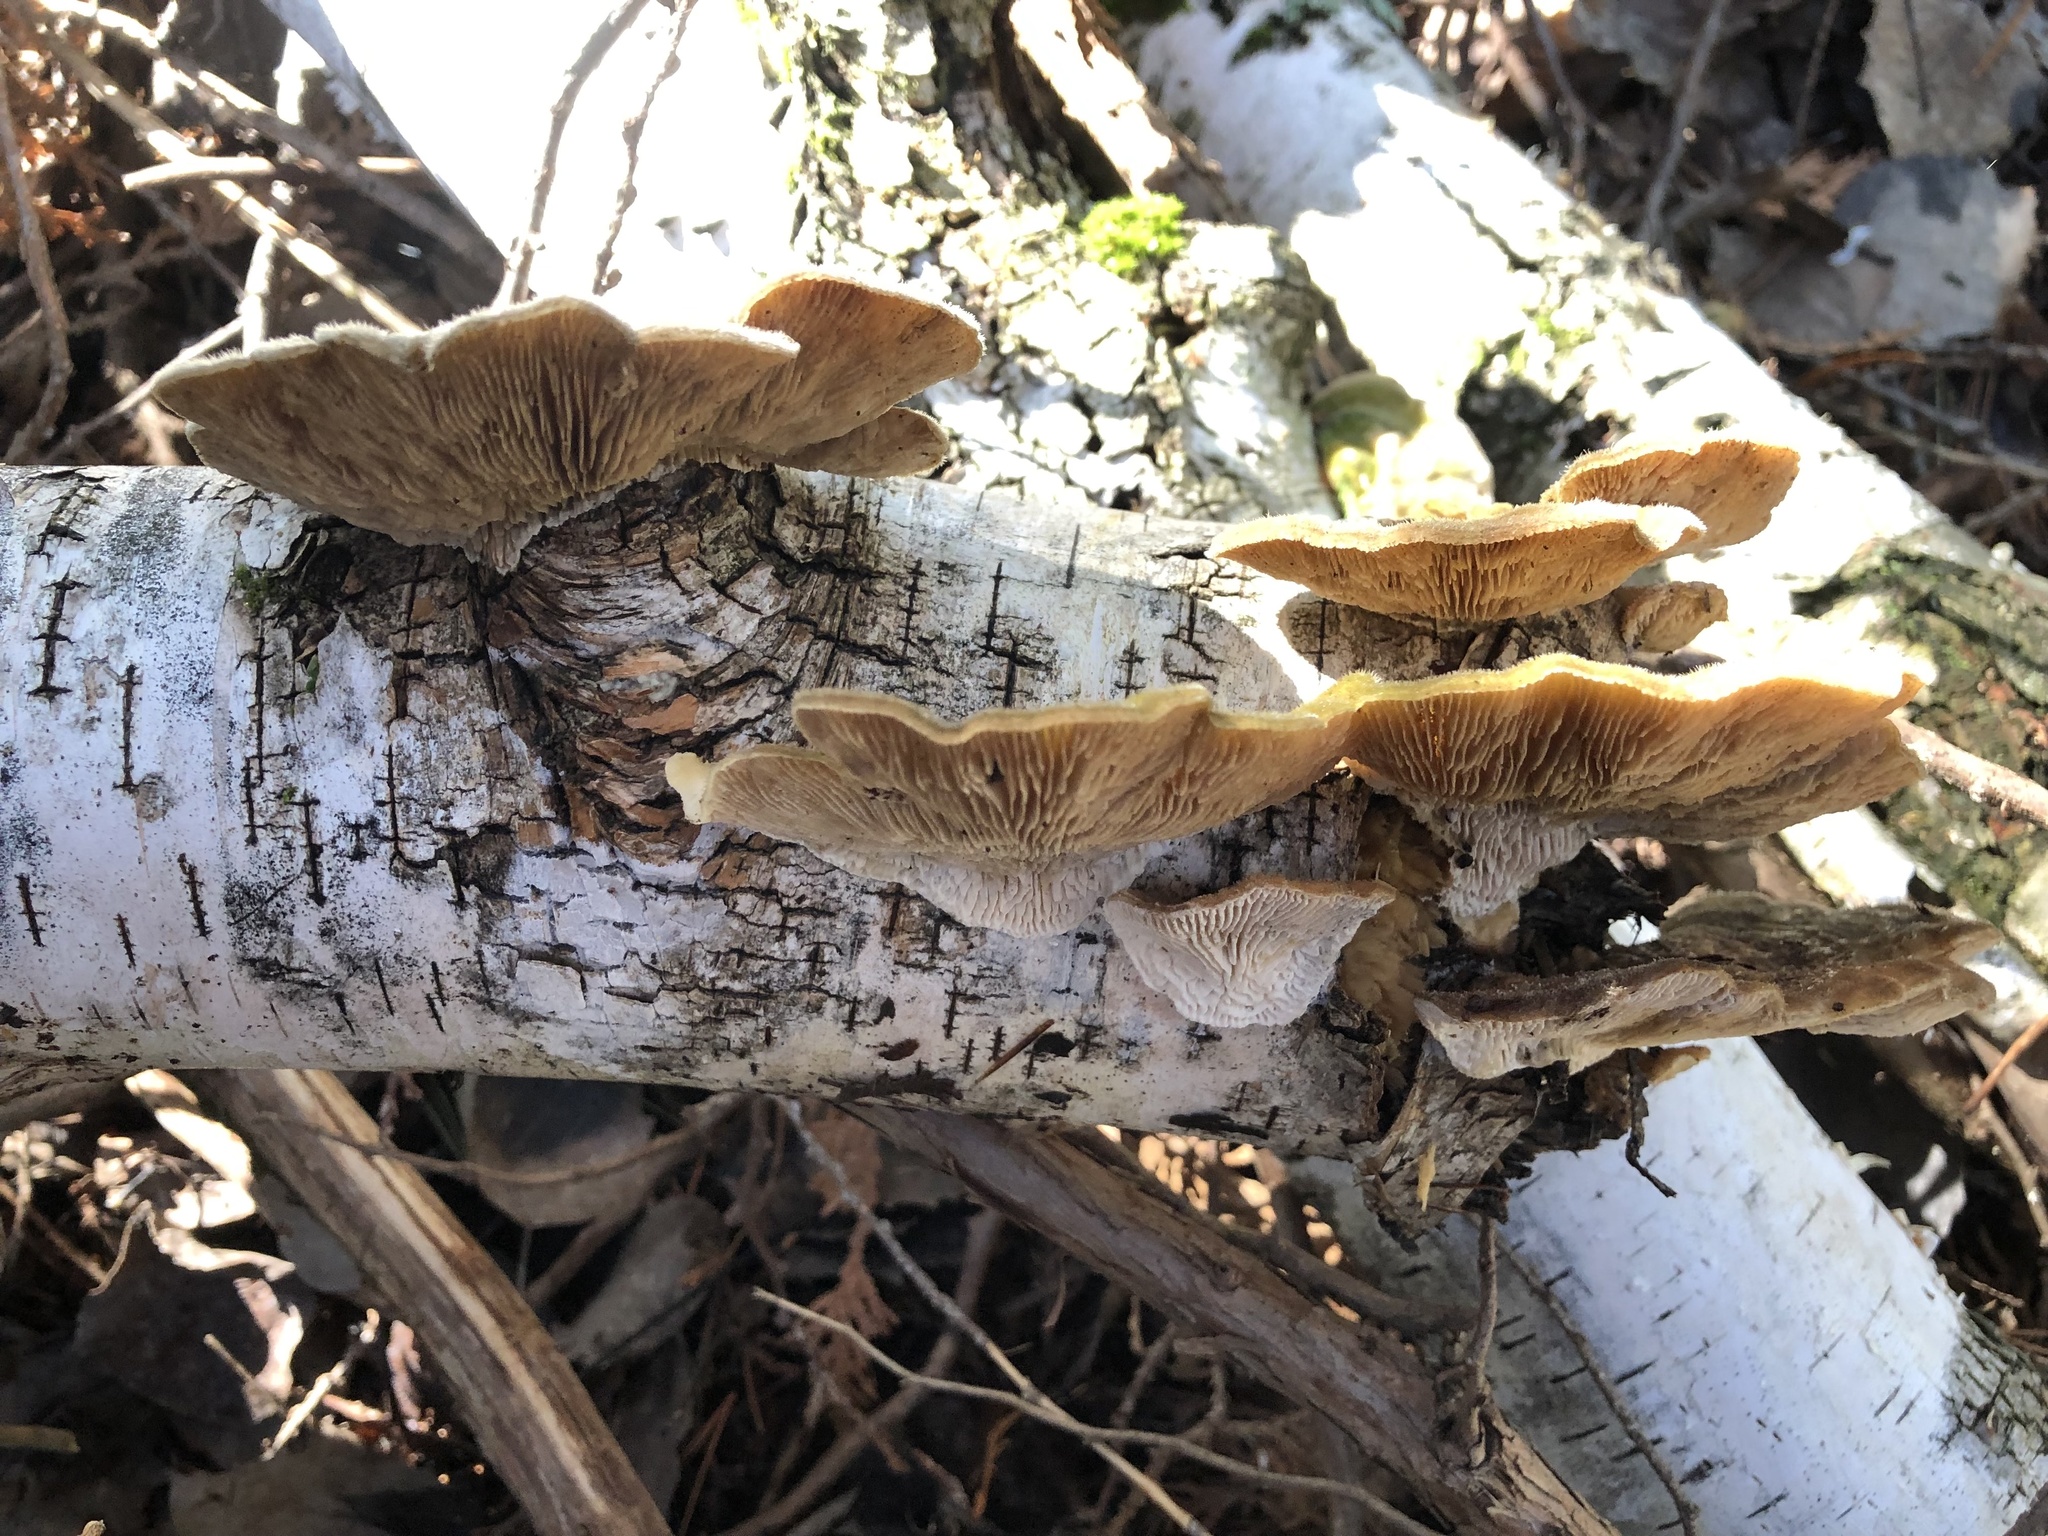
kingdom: Fungi
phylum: Basidiomycota
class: Agaricomycetes
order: Polyporales
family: Polyporaceae
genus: Lenzites
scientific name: Lenzites betulinus
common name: Birch mazegill
